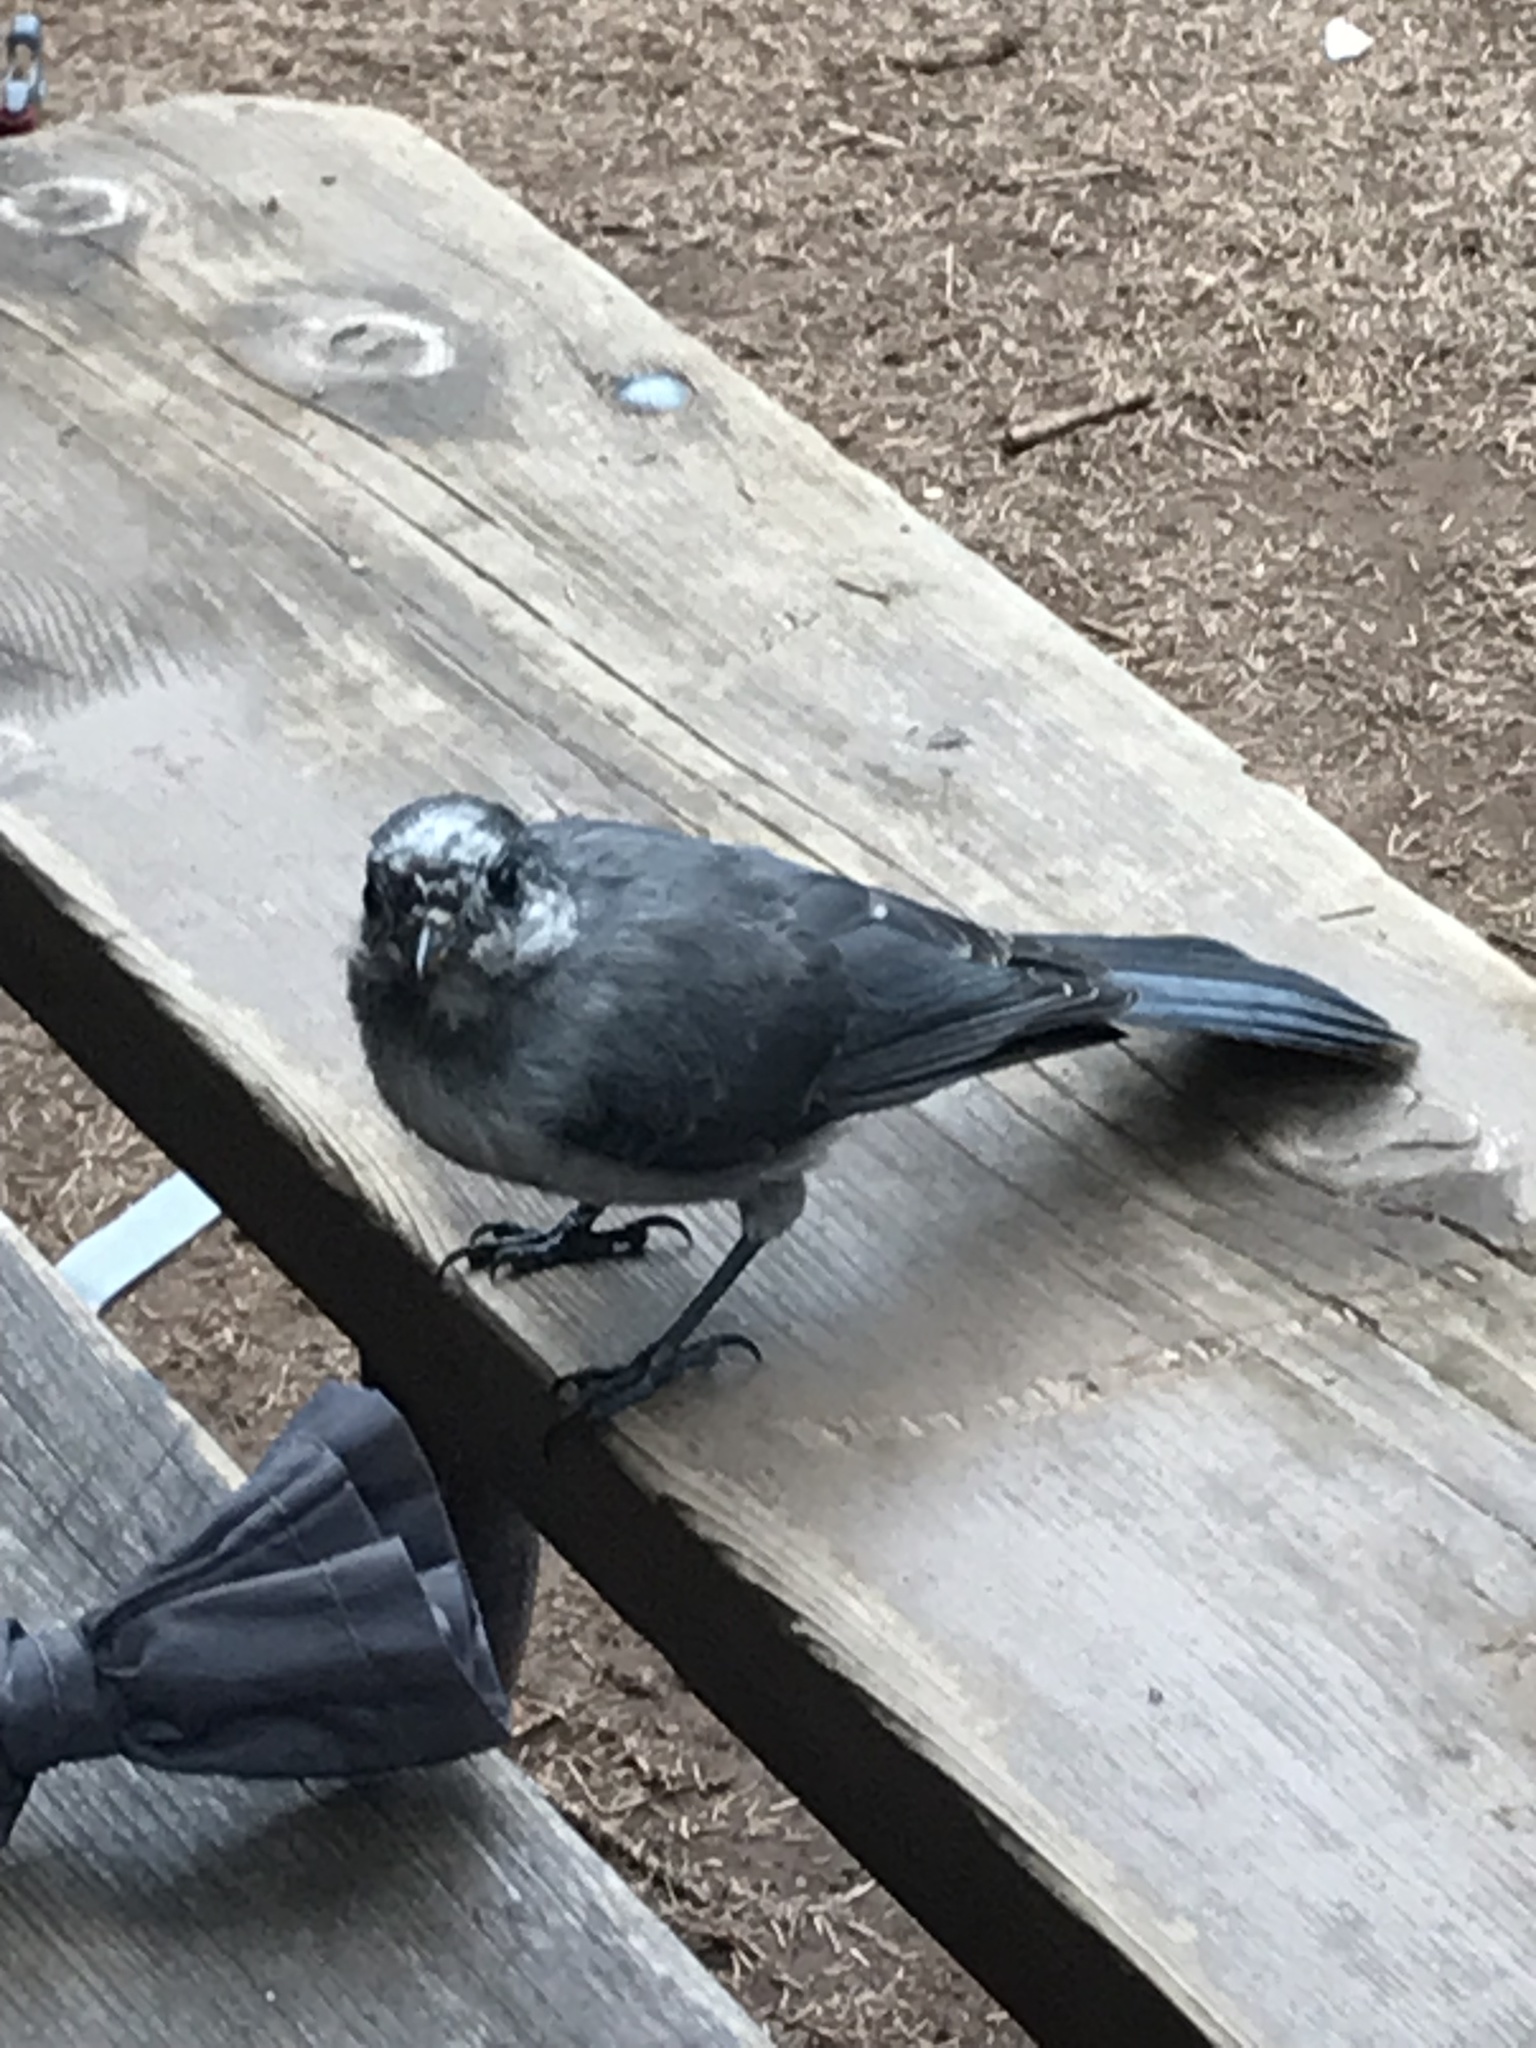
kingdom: Animalia
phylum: Chordata
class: Aves
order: Passeriformes
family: Corvidae
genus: Perisoreus
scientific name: Perisoreus canadensis
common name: Gray jay
